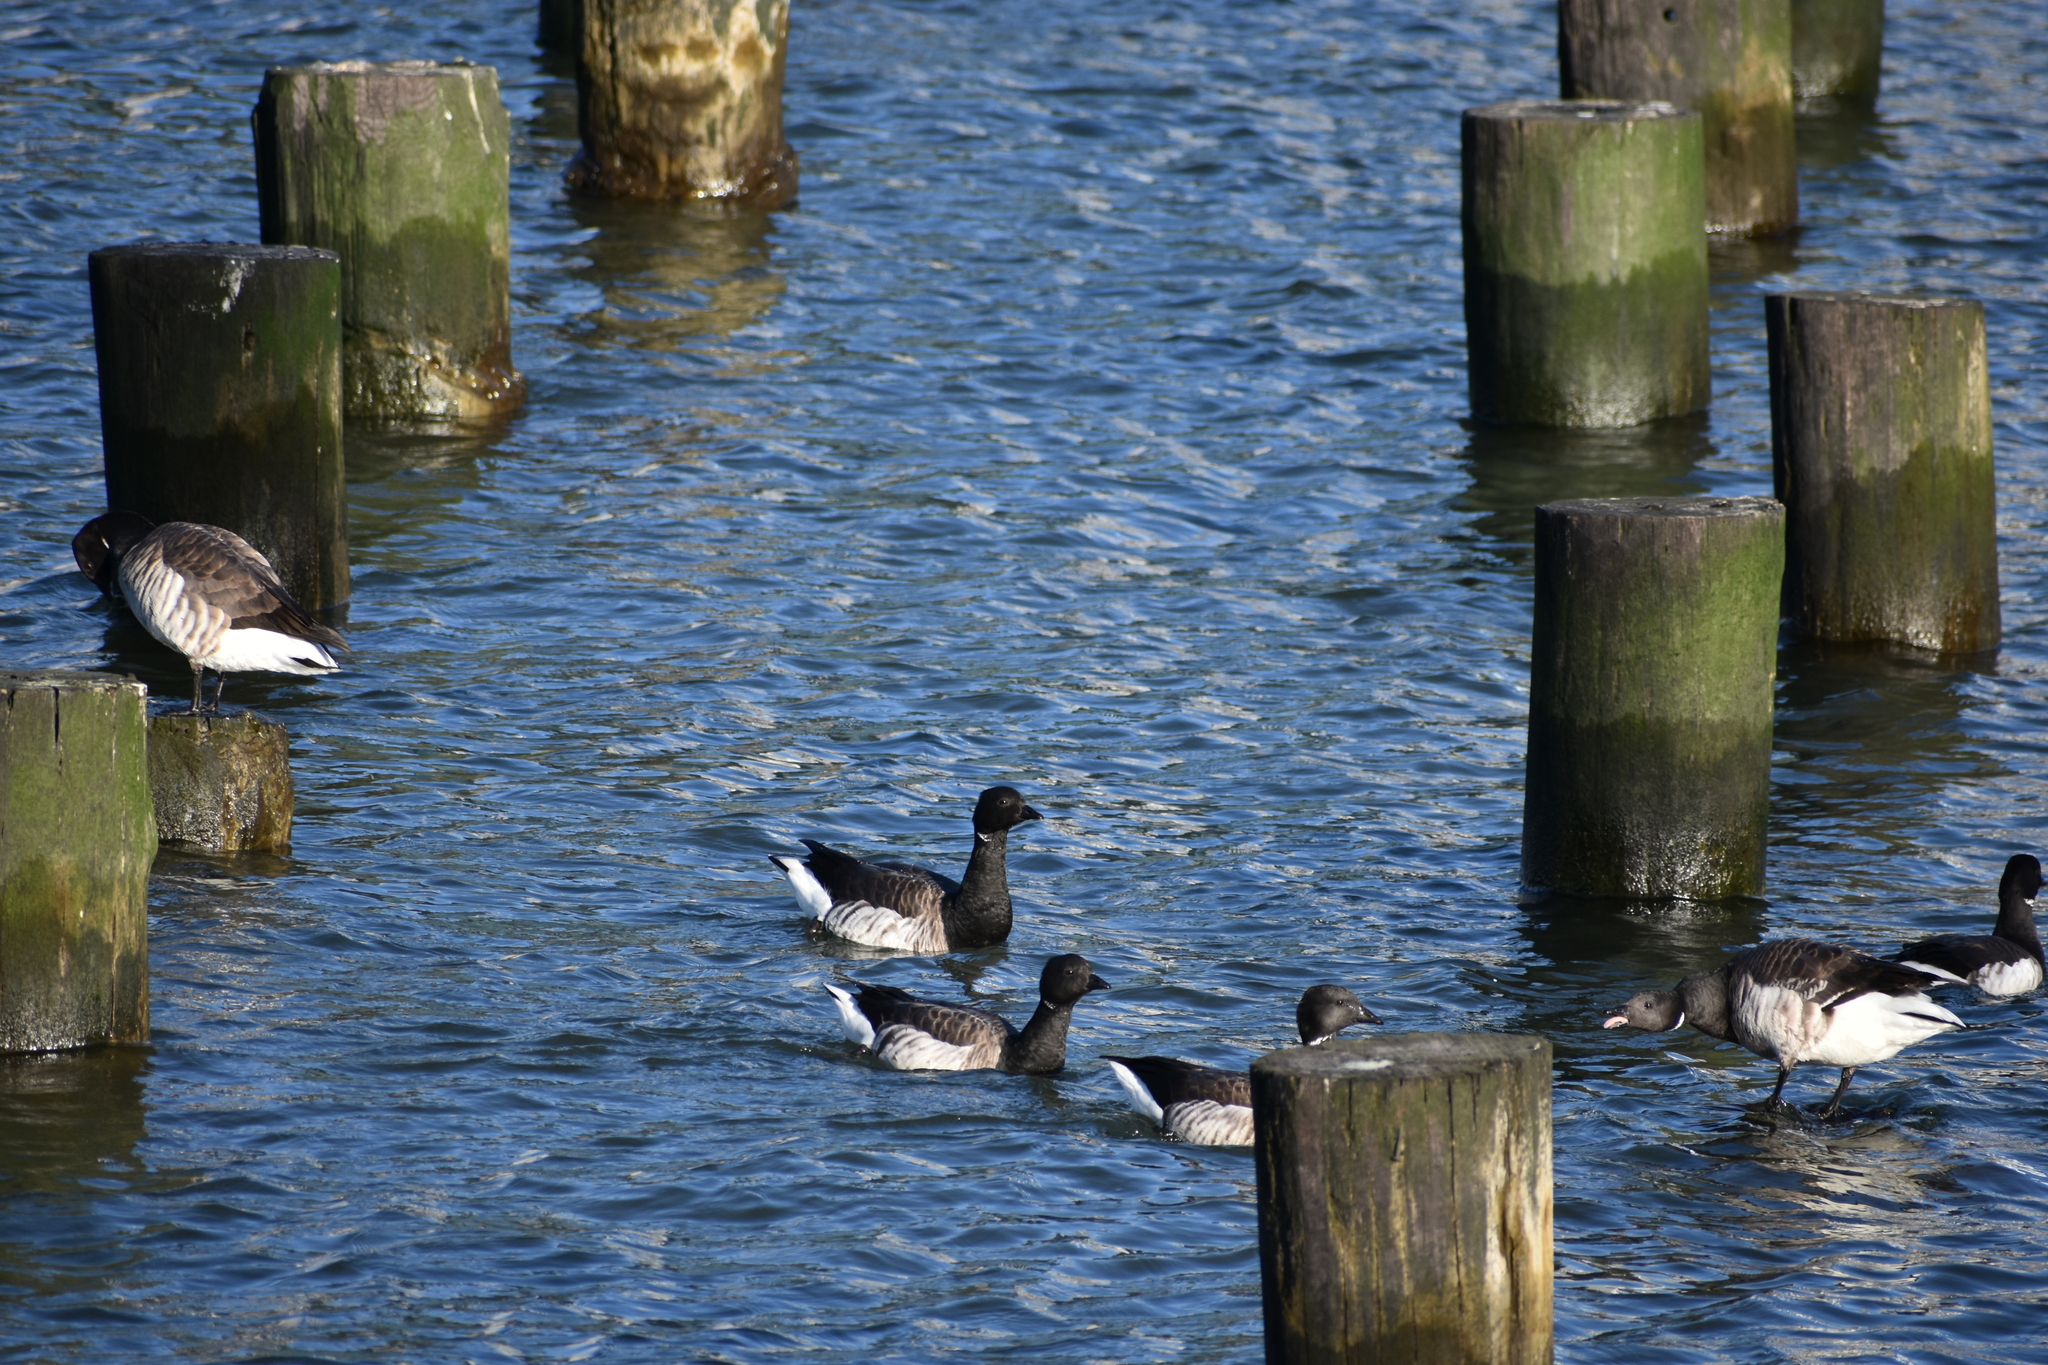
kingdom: Animalia
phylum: Chordata
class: Aves
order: Anseriformes
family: Anatidae
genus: Branta
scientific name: Branta bernicla
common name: Brant goose
